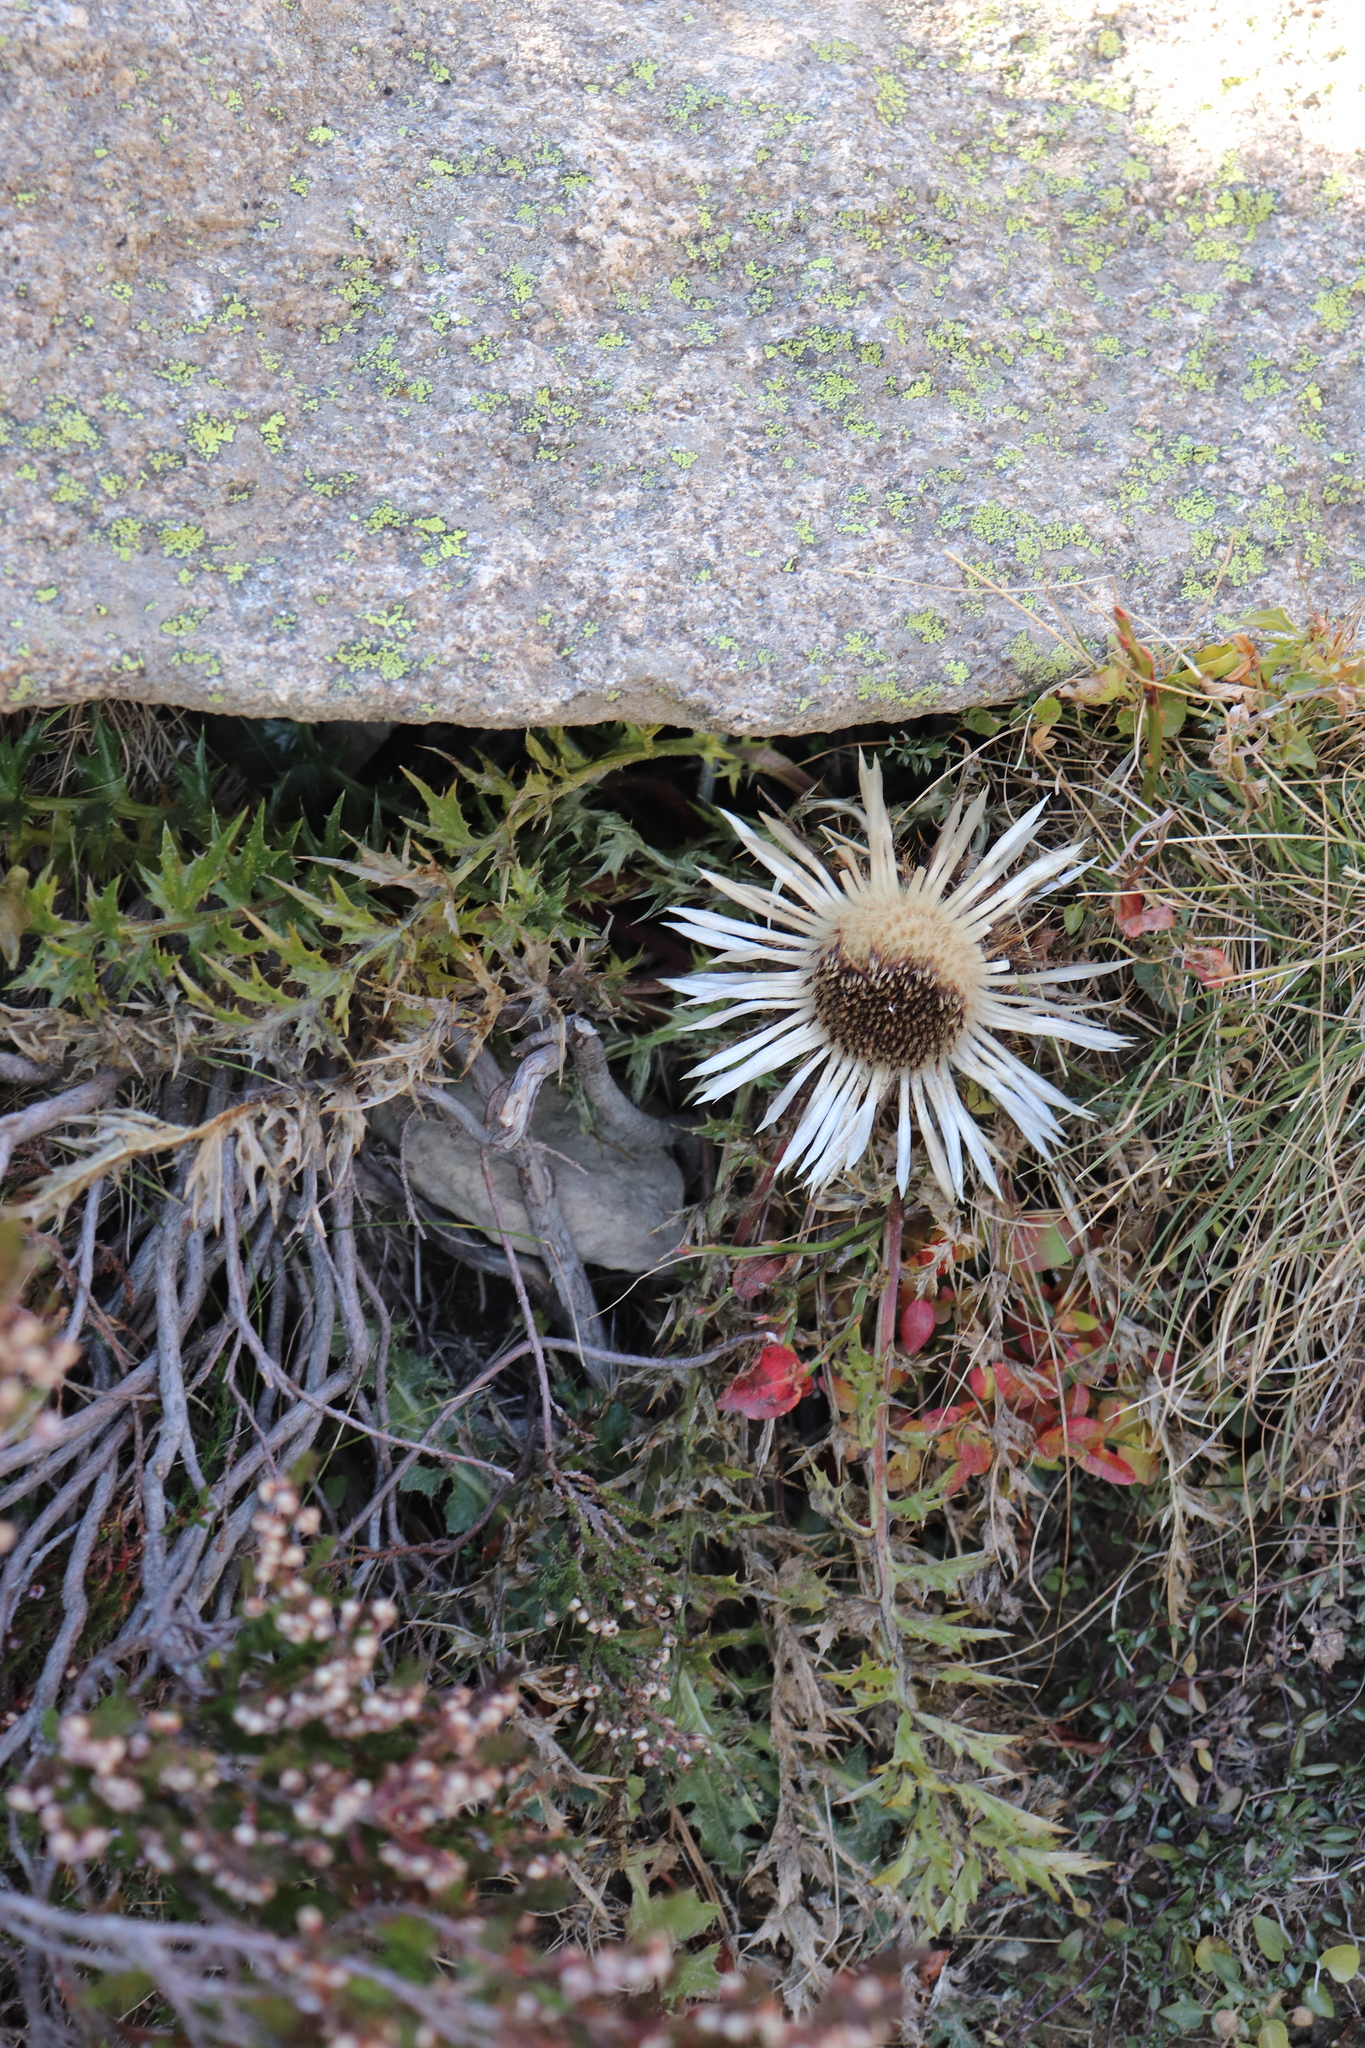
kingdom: Plantae
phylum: Tracheophyta
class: Magnoliopsida
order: Asterales
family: Asteraceae
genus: Carlina
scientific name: Carlina acanthifolia
